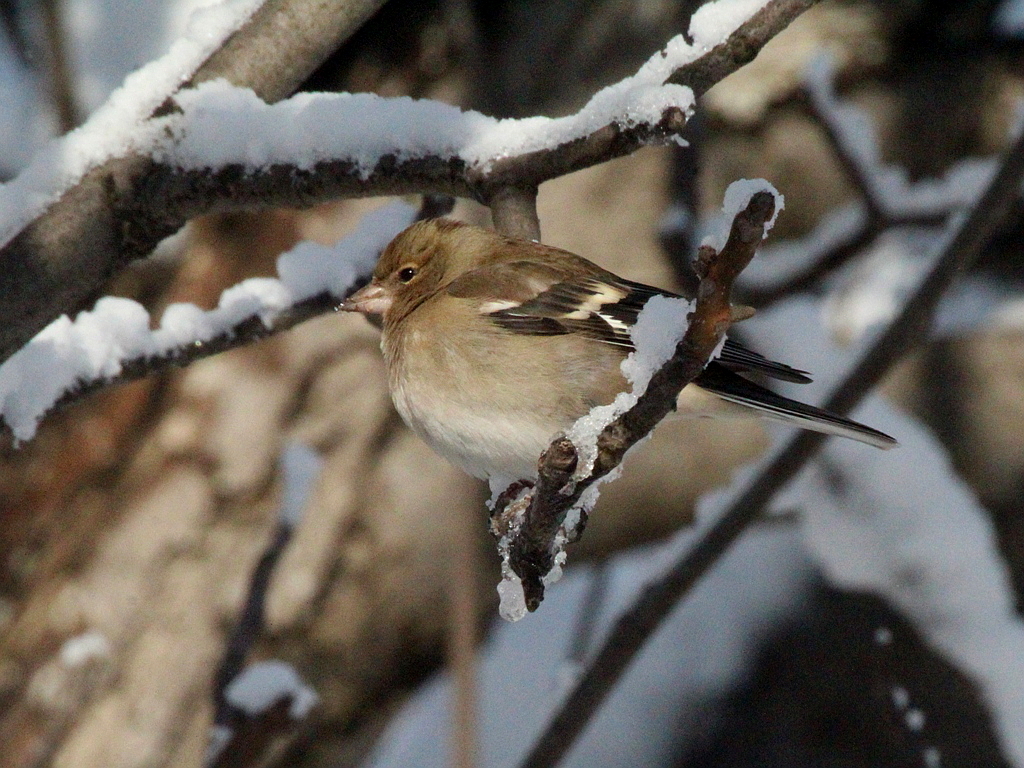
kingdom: Animalia
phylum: Chordata
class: Aves
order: Passeriformes
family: Fringillidae
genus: Fringilla
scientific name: Fringilla coelebs
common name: Common chaffinch
